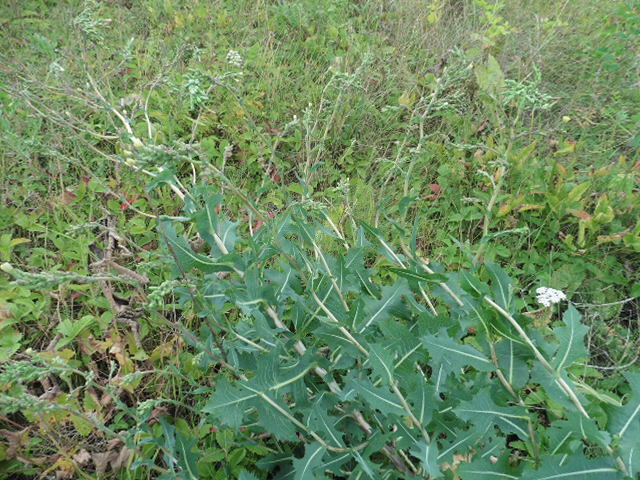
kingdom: Plantae
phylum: Tracheophyta
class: Magnoliopsida
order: Asterales
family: Asteraceae
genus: Lactuca
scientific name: Lactuca serriola
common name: Prickly lettuce
